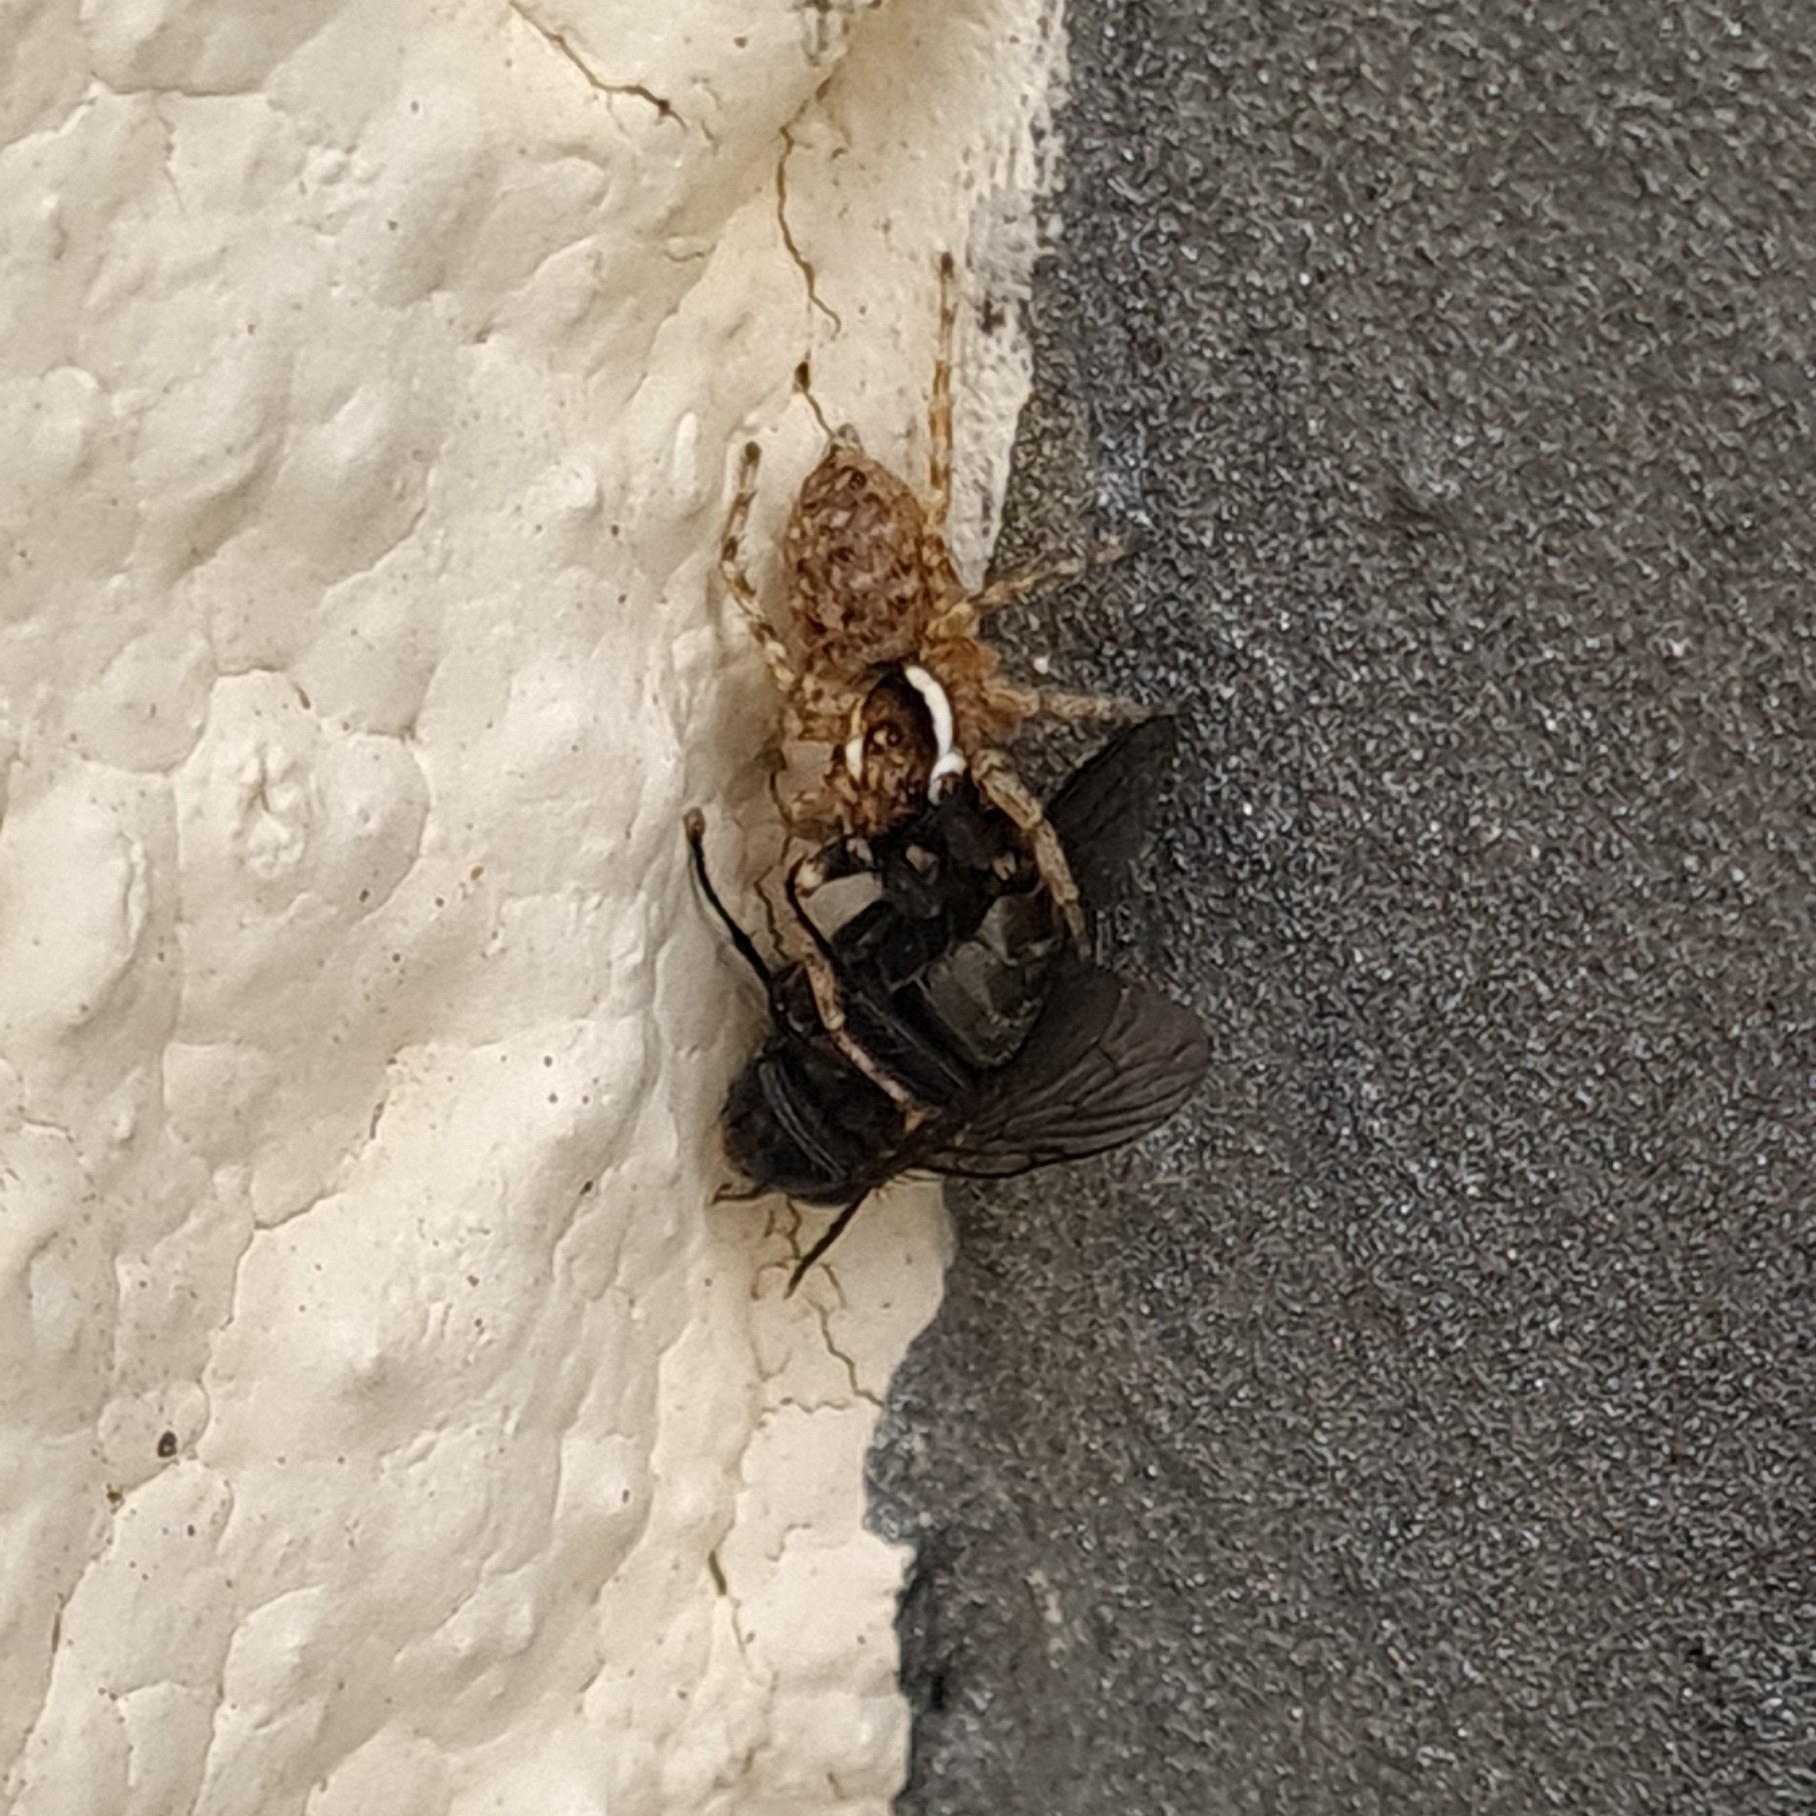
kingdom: Animalia
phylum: Arthropoda
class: Arachnida
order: Araneae
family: Salticidae
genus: Menemerus
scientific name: Menemerus semilimbatus
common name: Jumping spider
